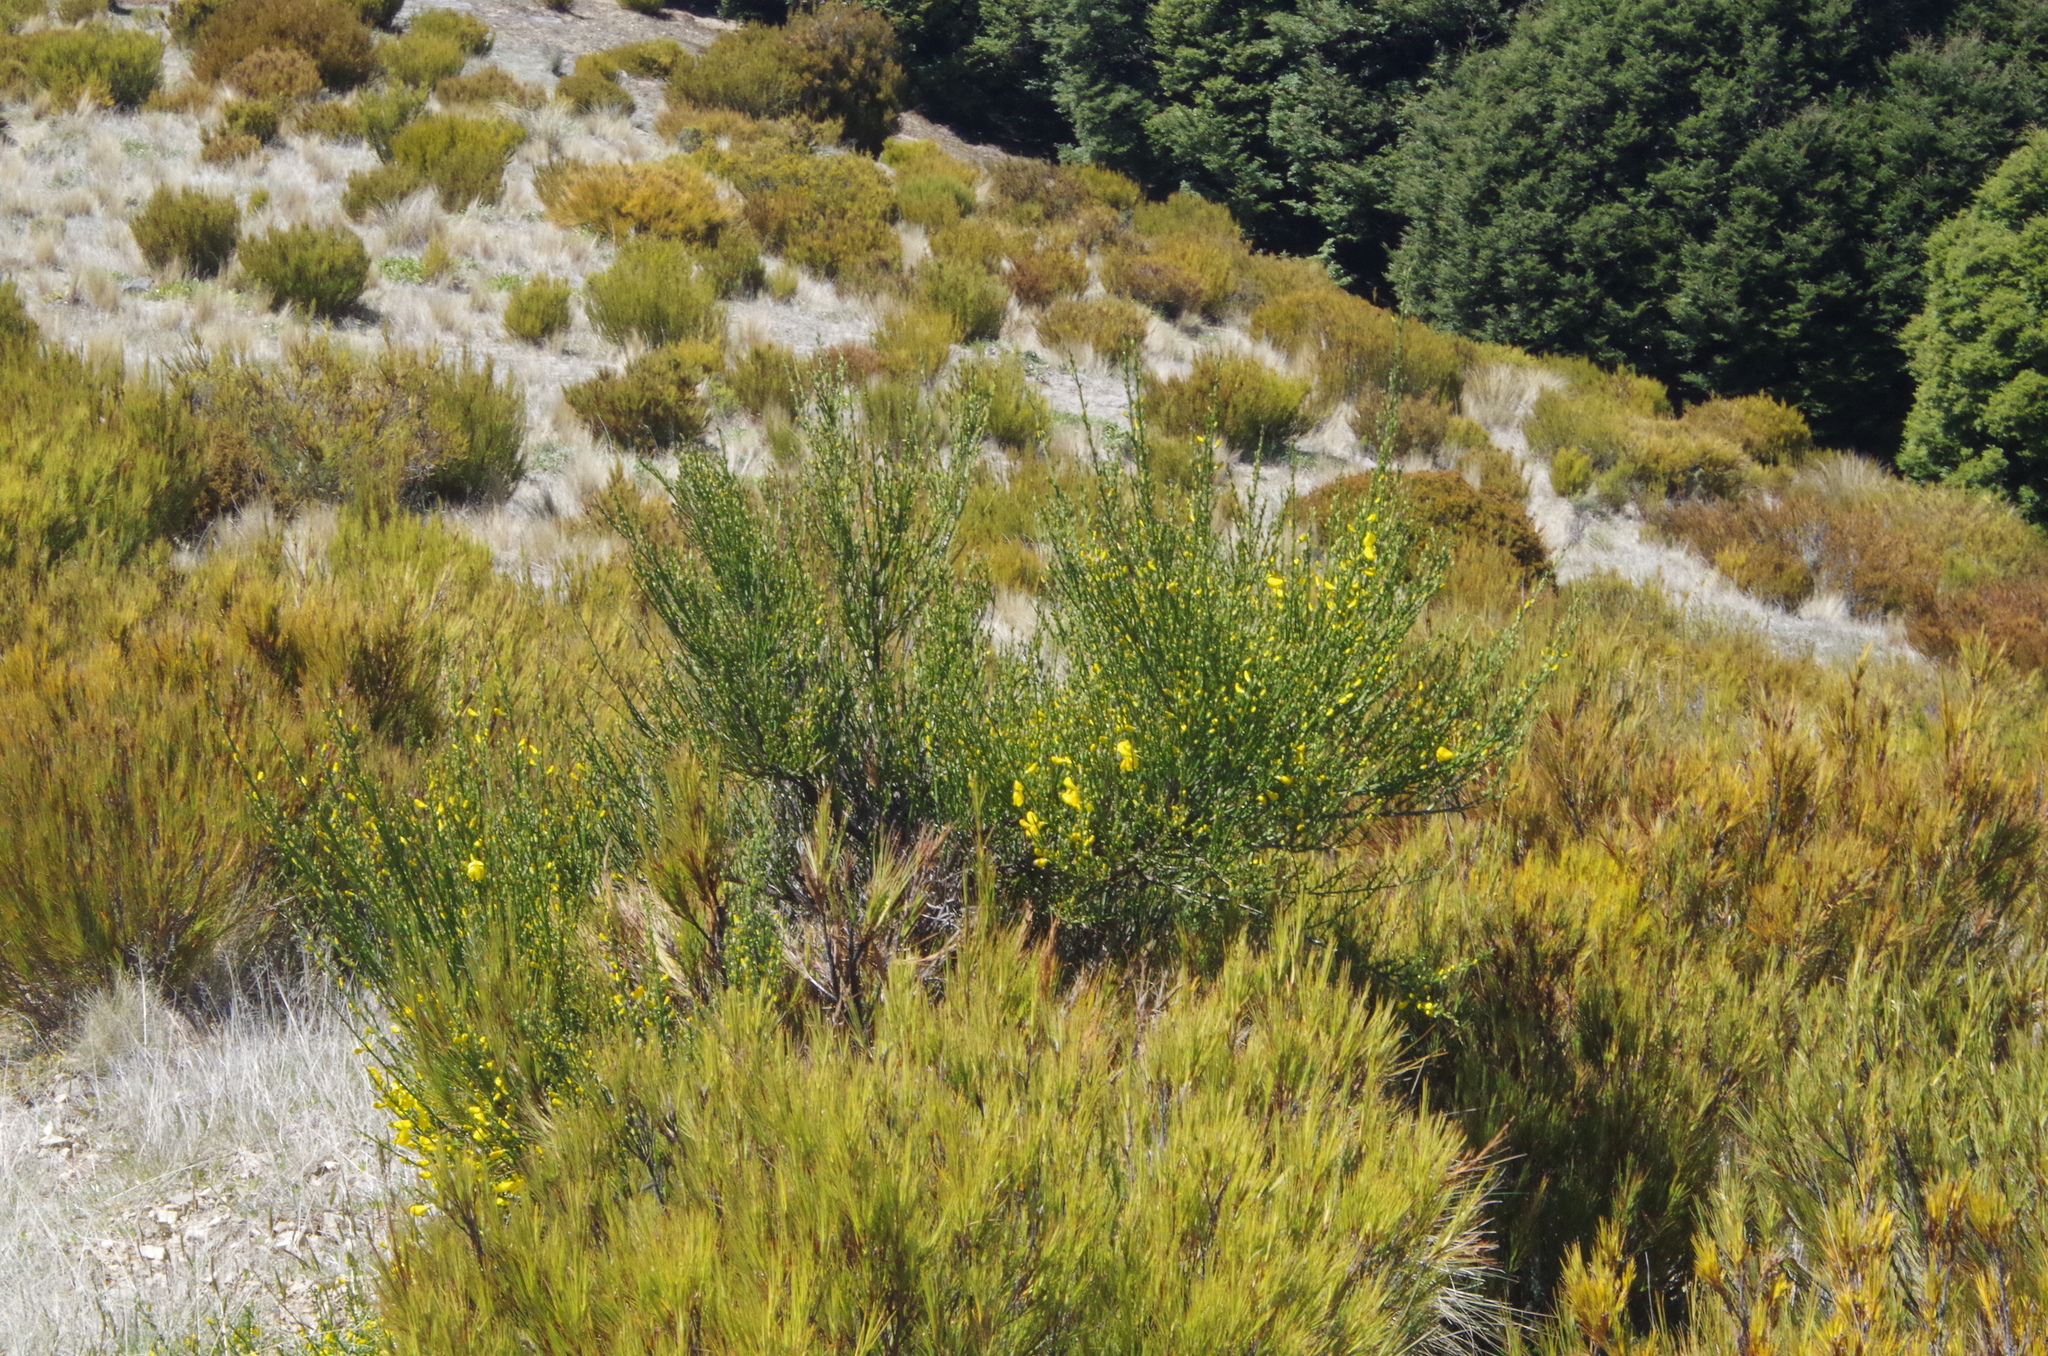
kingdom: Plantae
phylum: Tracheophyta
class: Magnoliopsida
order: Fabales
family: Fabaceae
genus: Cytisus
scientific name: Cytisus scoparius
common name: Scotch broom
